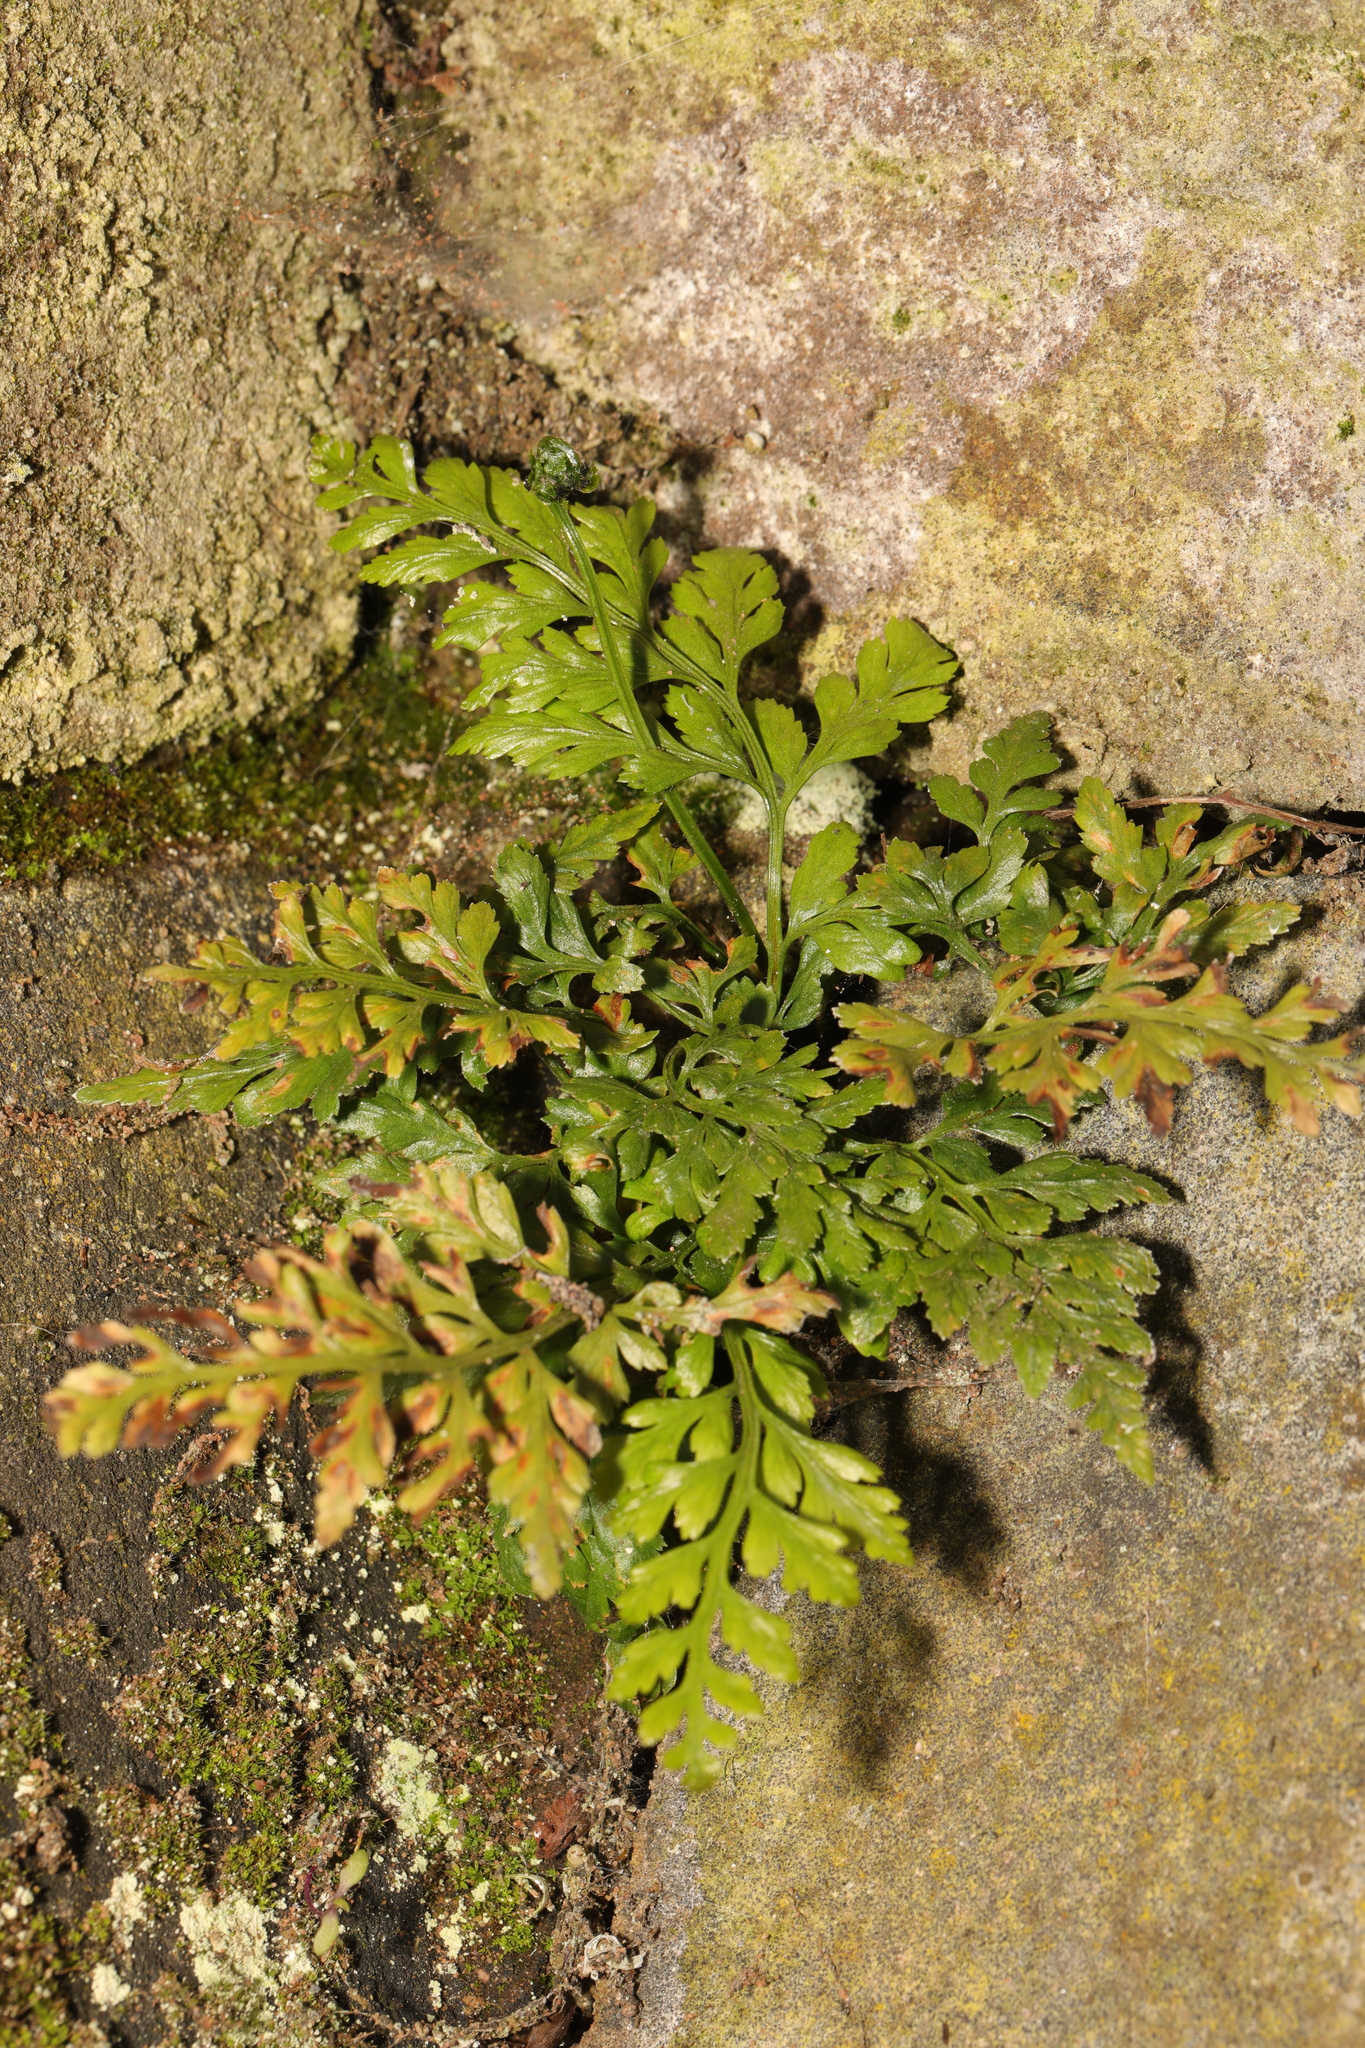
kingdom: Plantae
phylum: Tracheophyta
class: Polypodiopsida
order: Polypodiales
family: Aspleniaceae
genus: Asplenium
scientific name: Asplenium adiantum-nigrum
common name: Black spleenwort
